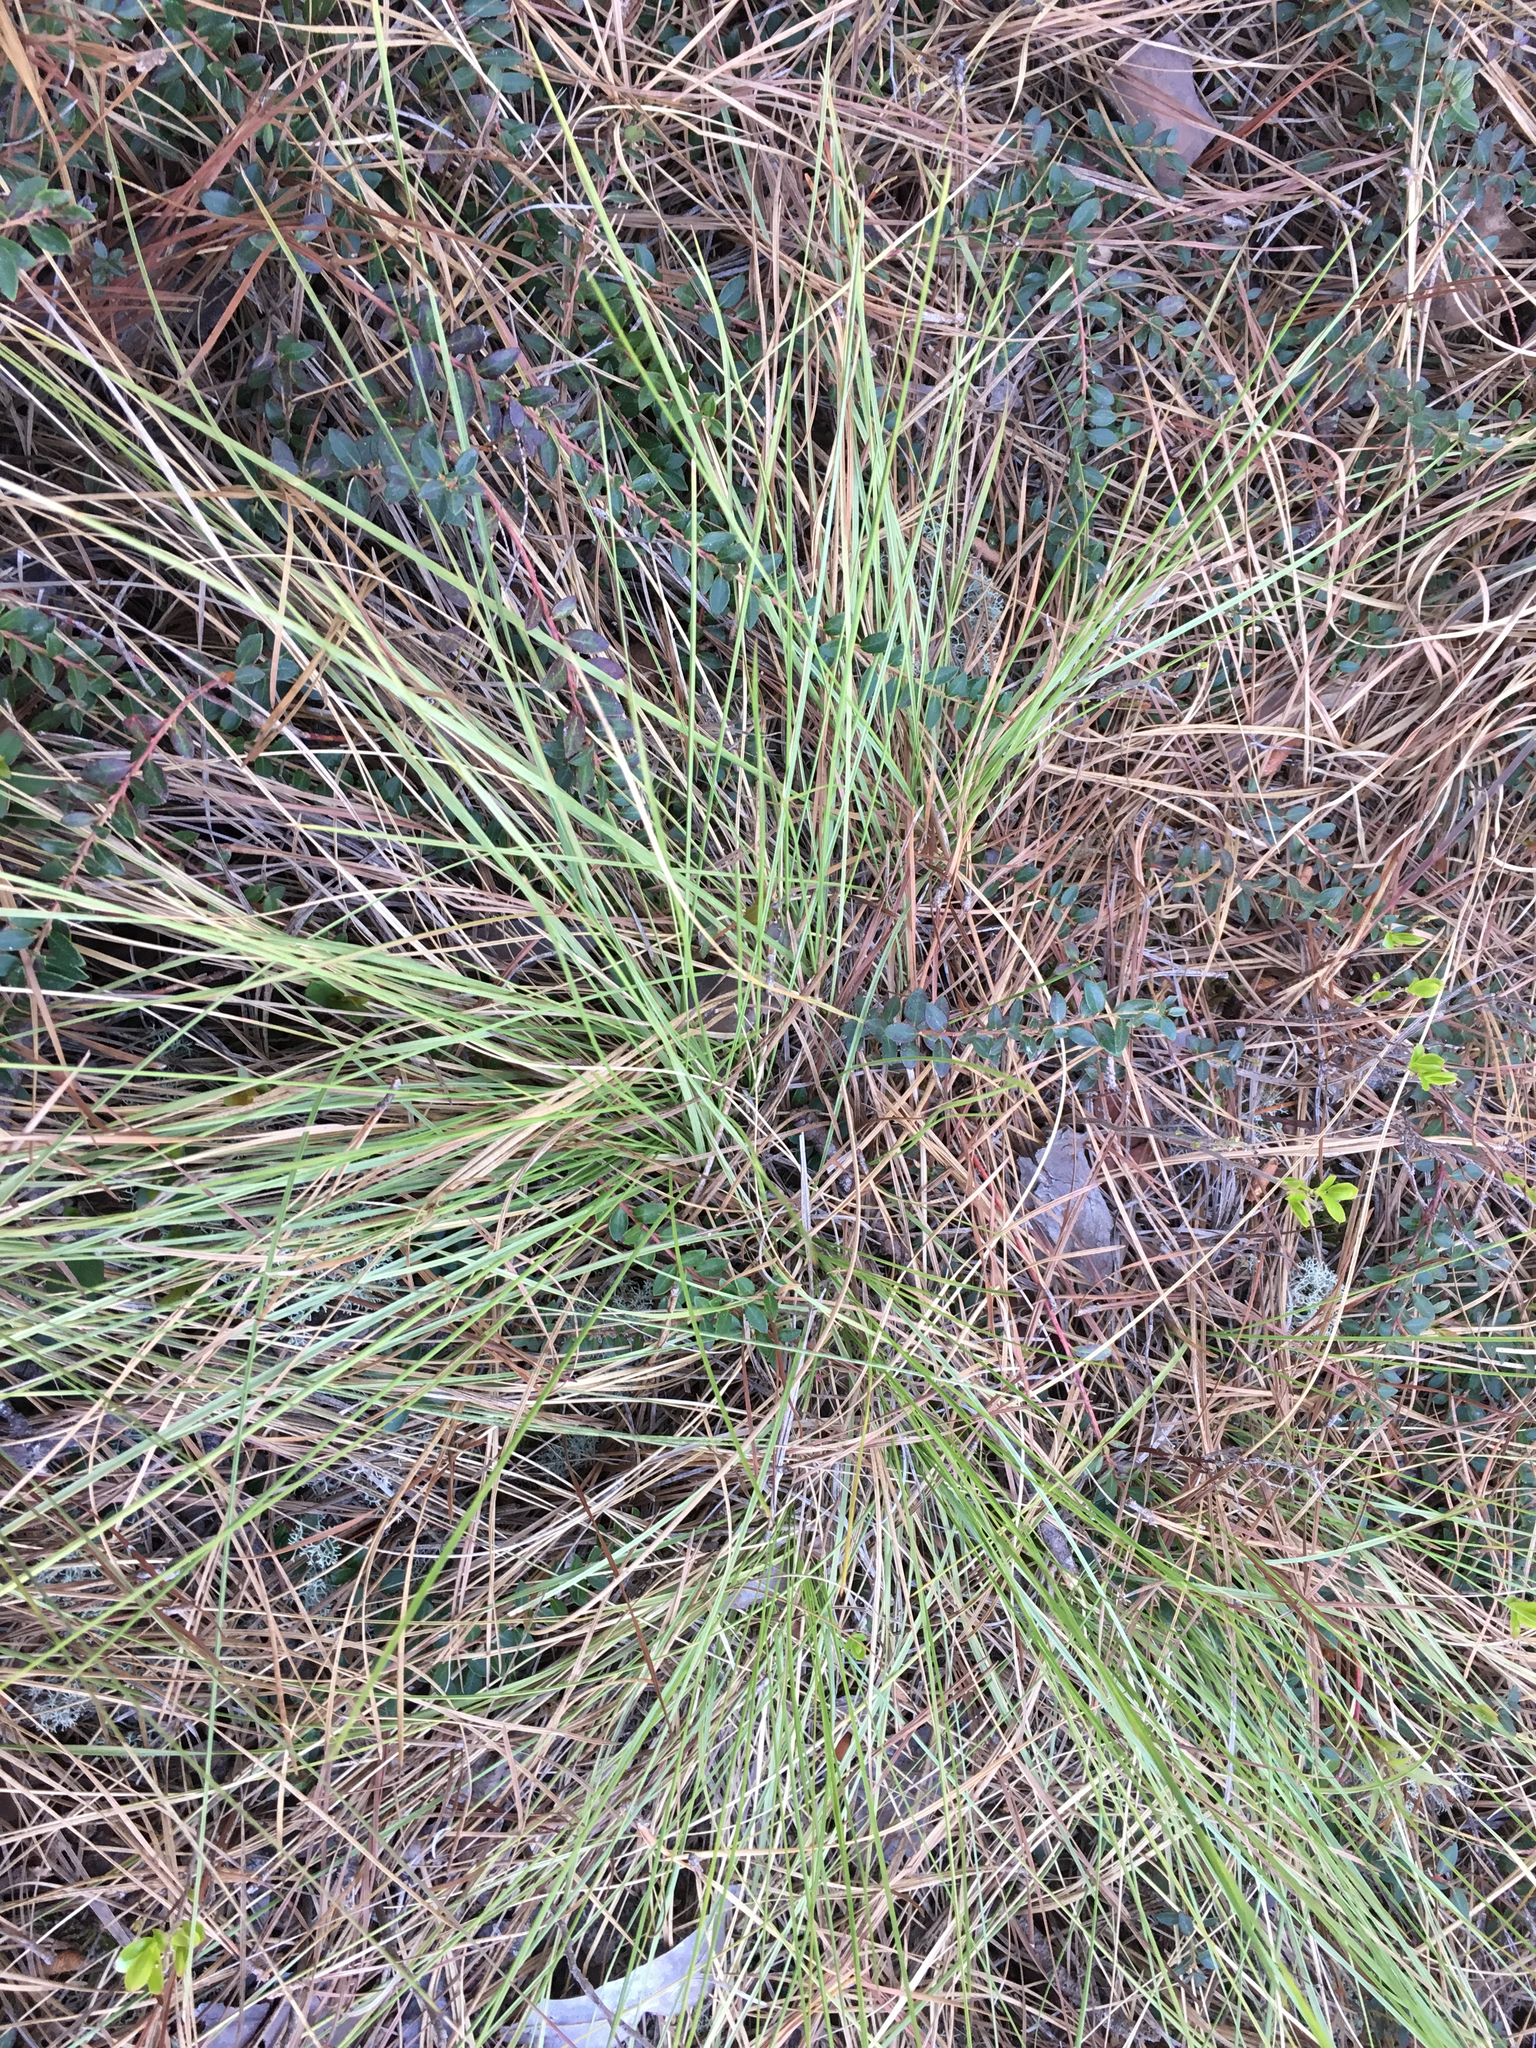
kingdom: Plantae
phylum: Tracheophyta
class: Liliopsida
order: Poales
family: Poaceae
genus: Sporobolus
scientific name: Sporobolus pinetorum
